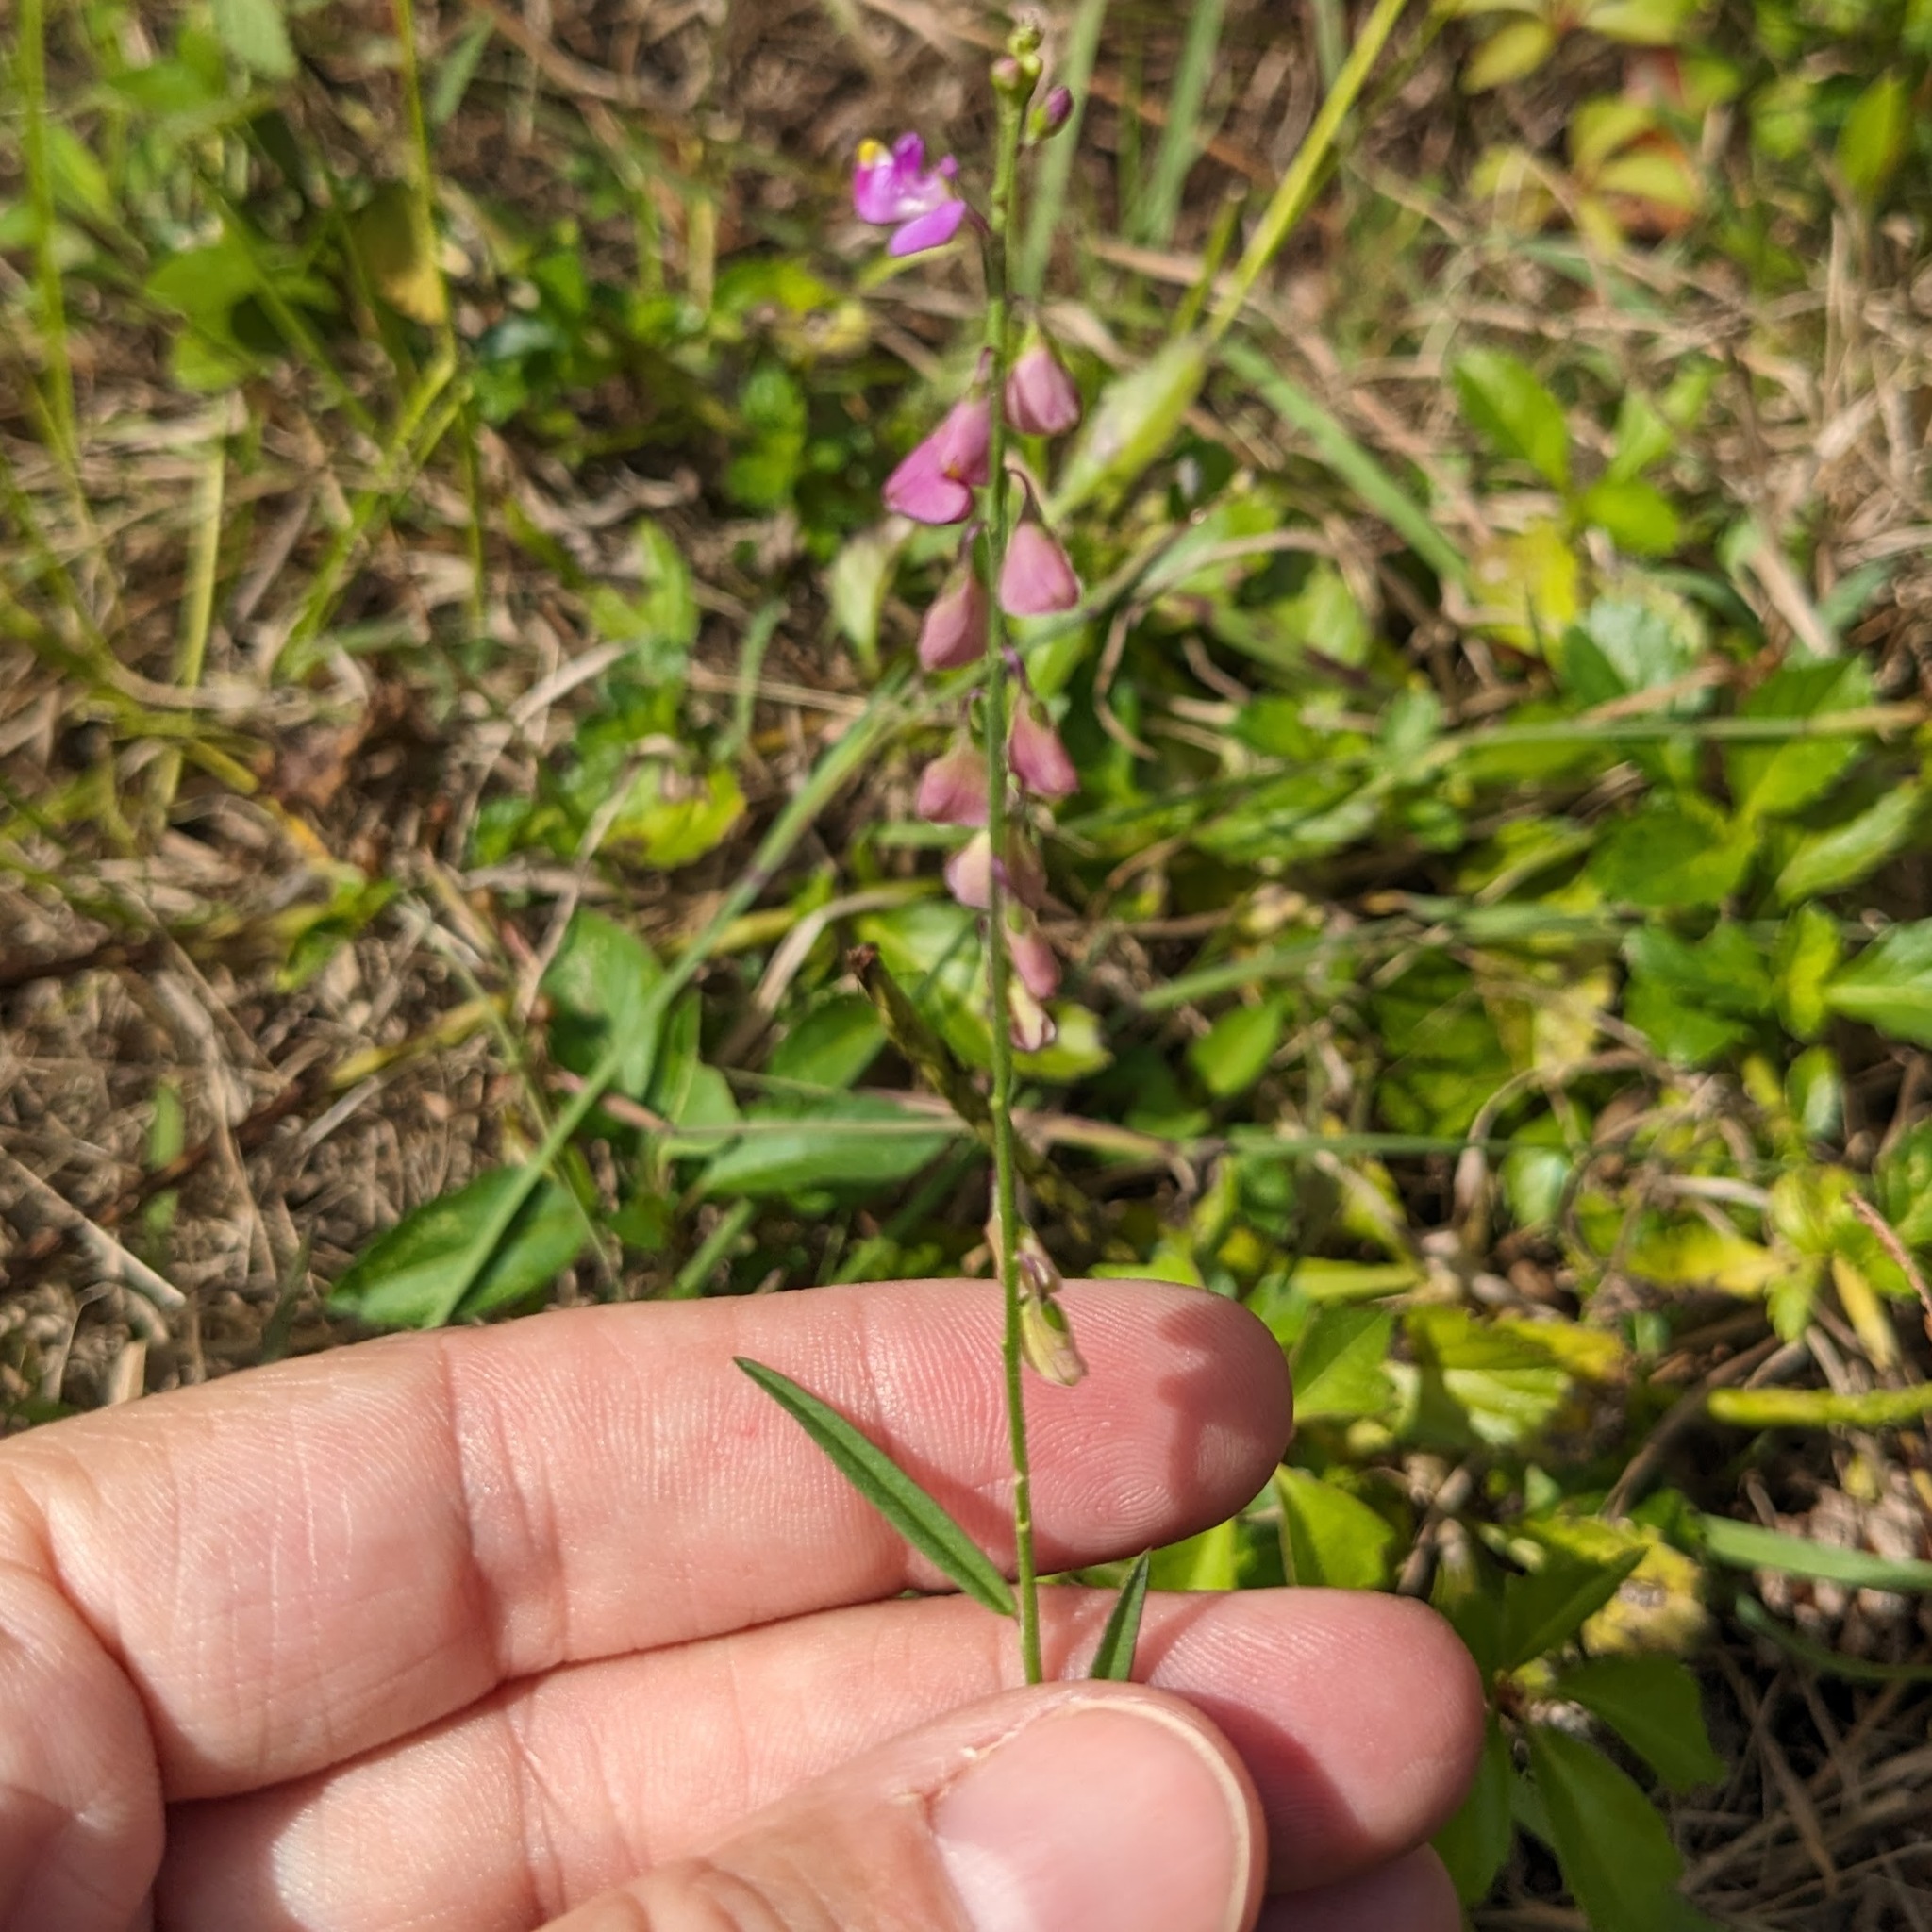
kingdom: Plantae
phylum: Tracheophyta
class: Magnoliopsida
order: Fabales
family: Polygalaceae
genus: Asemeia
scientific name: Asemeia grandiflora
